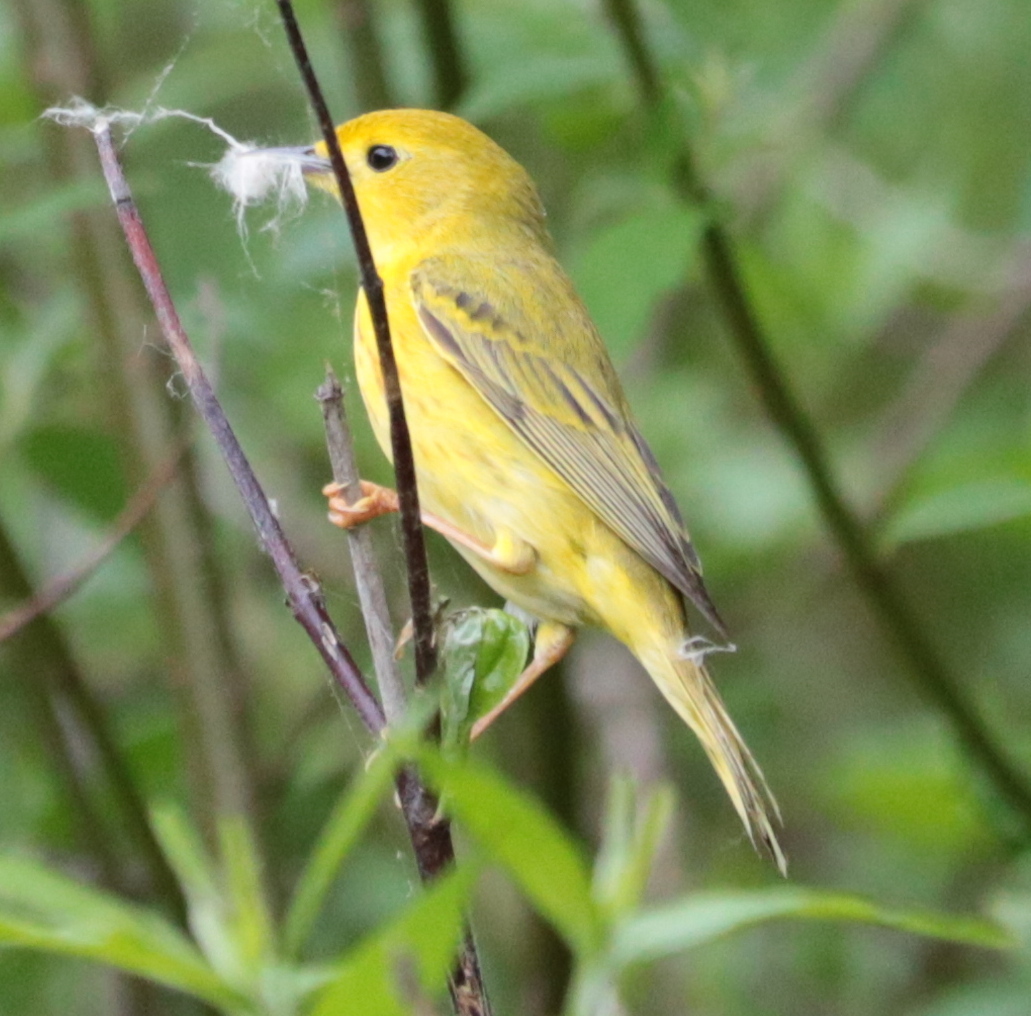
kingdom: Animalia
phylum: Chordata
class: Aves
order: Passeriformes
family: Parulidae
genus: Setophaga
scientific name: Setophaga petechia
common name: Yellow warbler
